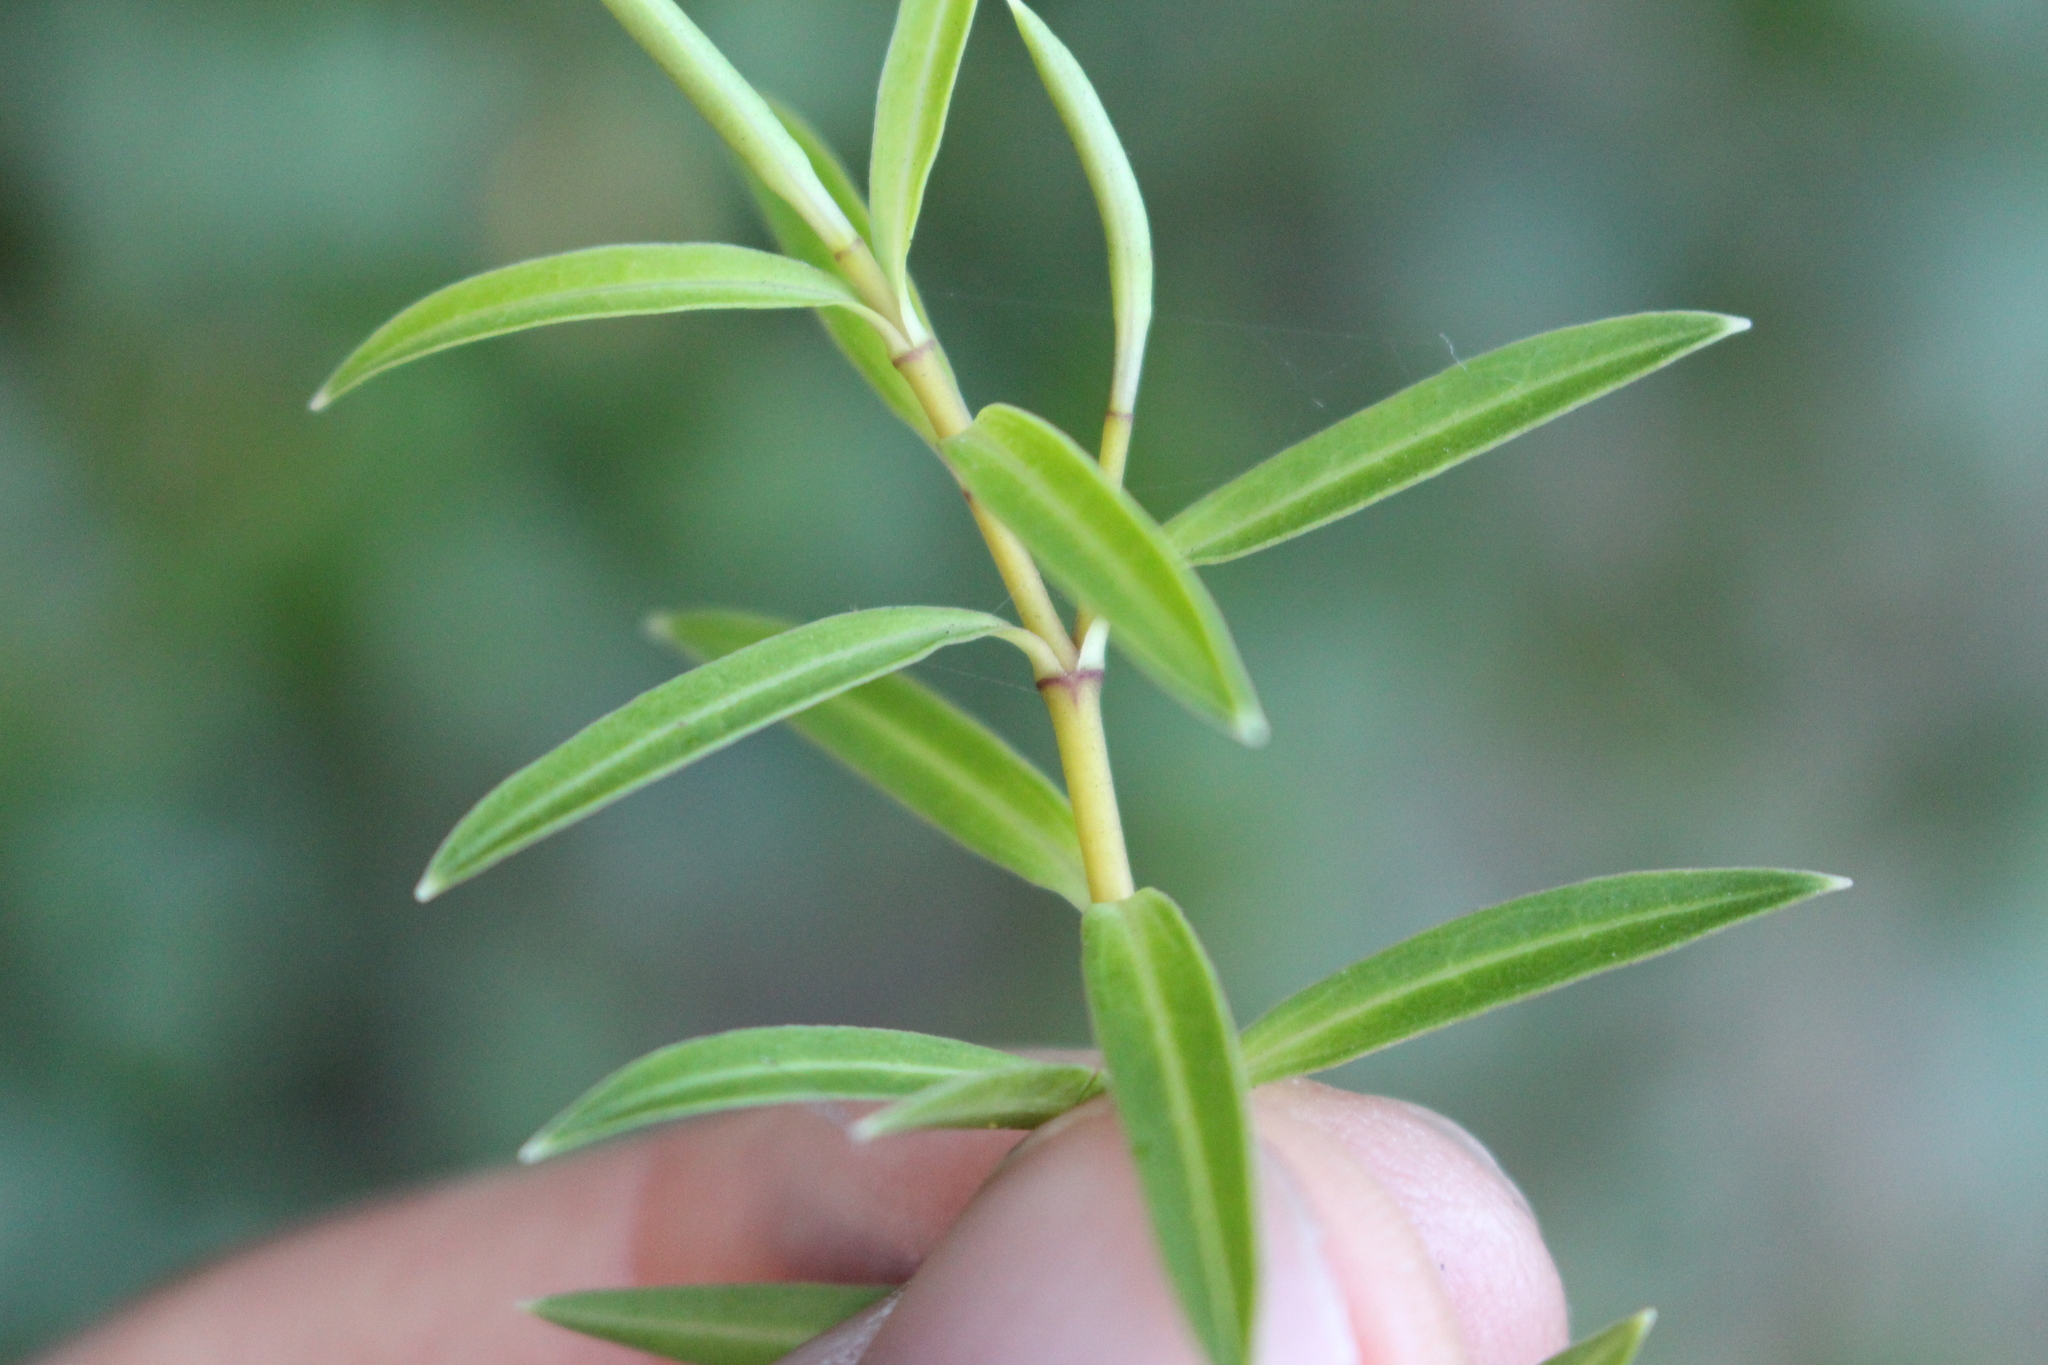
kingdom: Plantae
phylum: Tracheophyta
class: Magnoliopsida
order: Lamiales
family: Plantaginaceae
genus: Veronica
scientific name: Veronica strictissima
